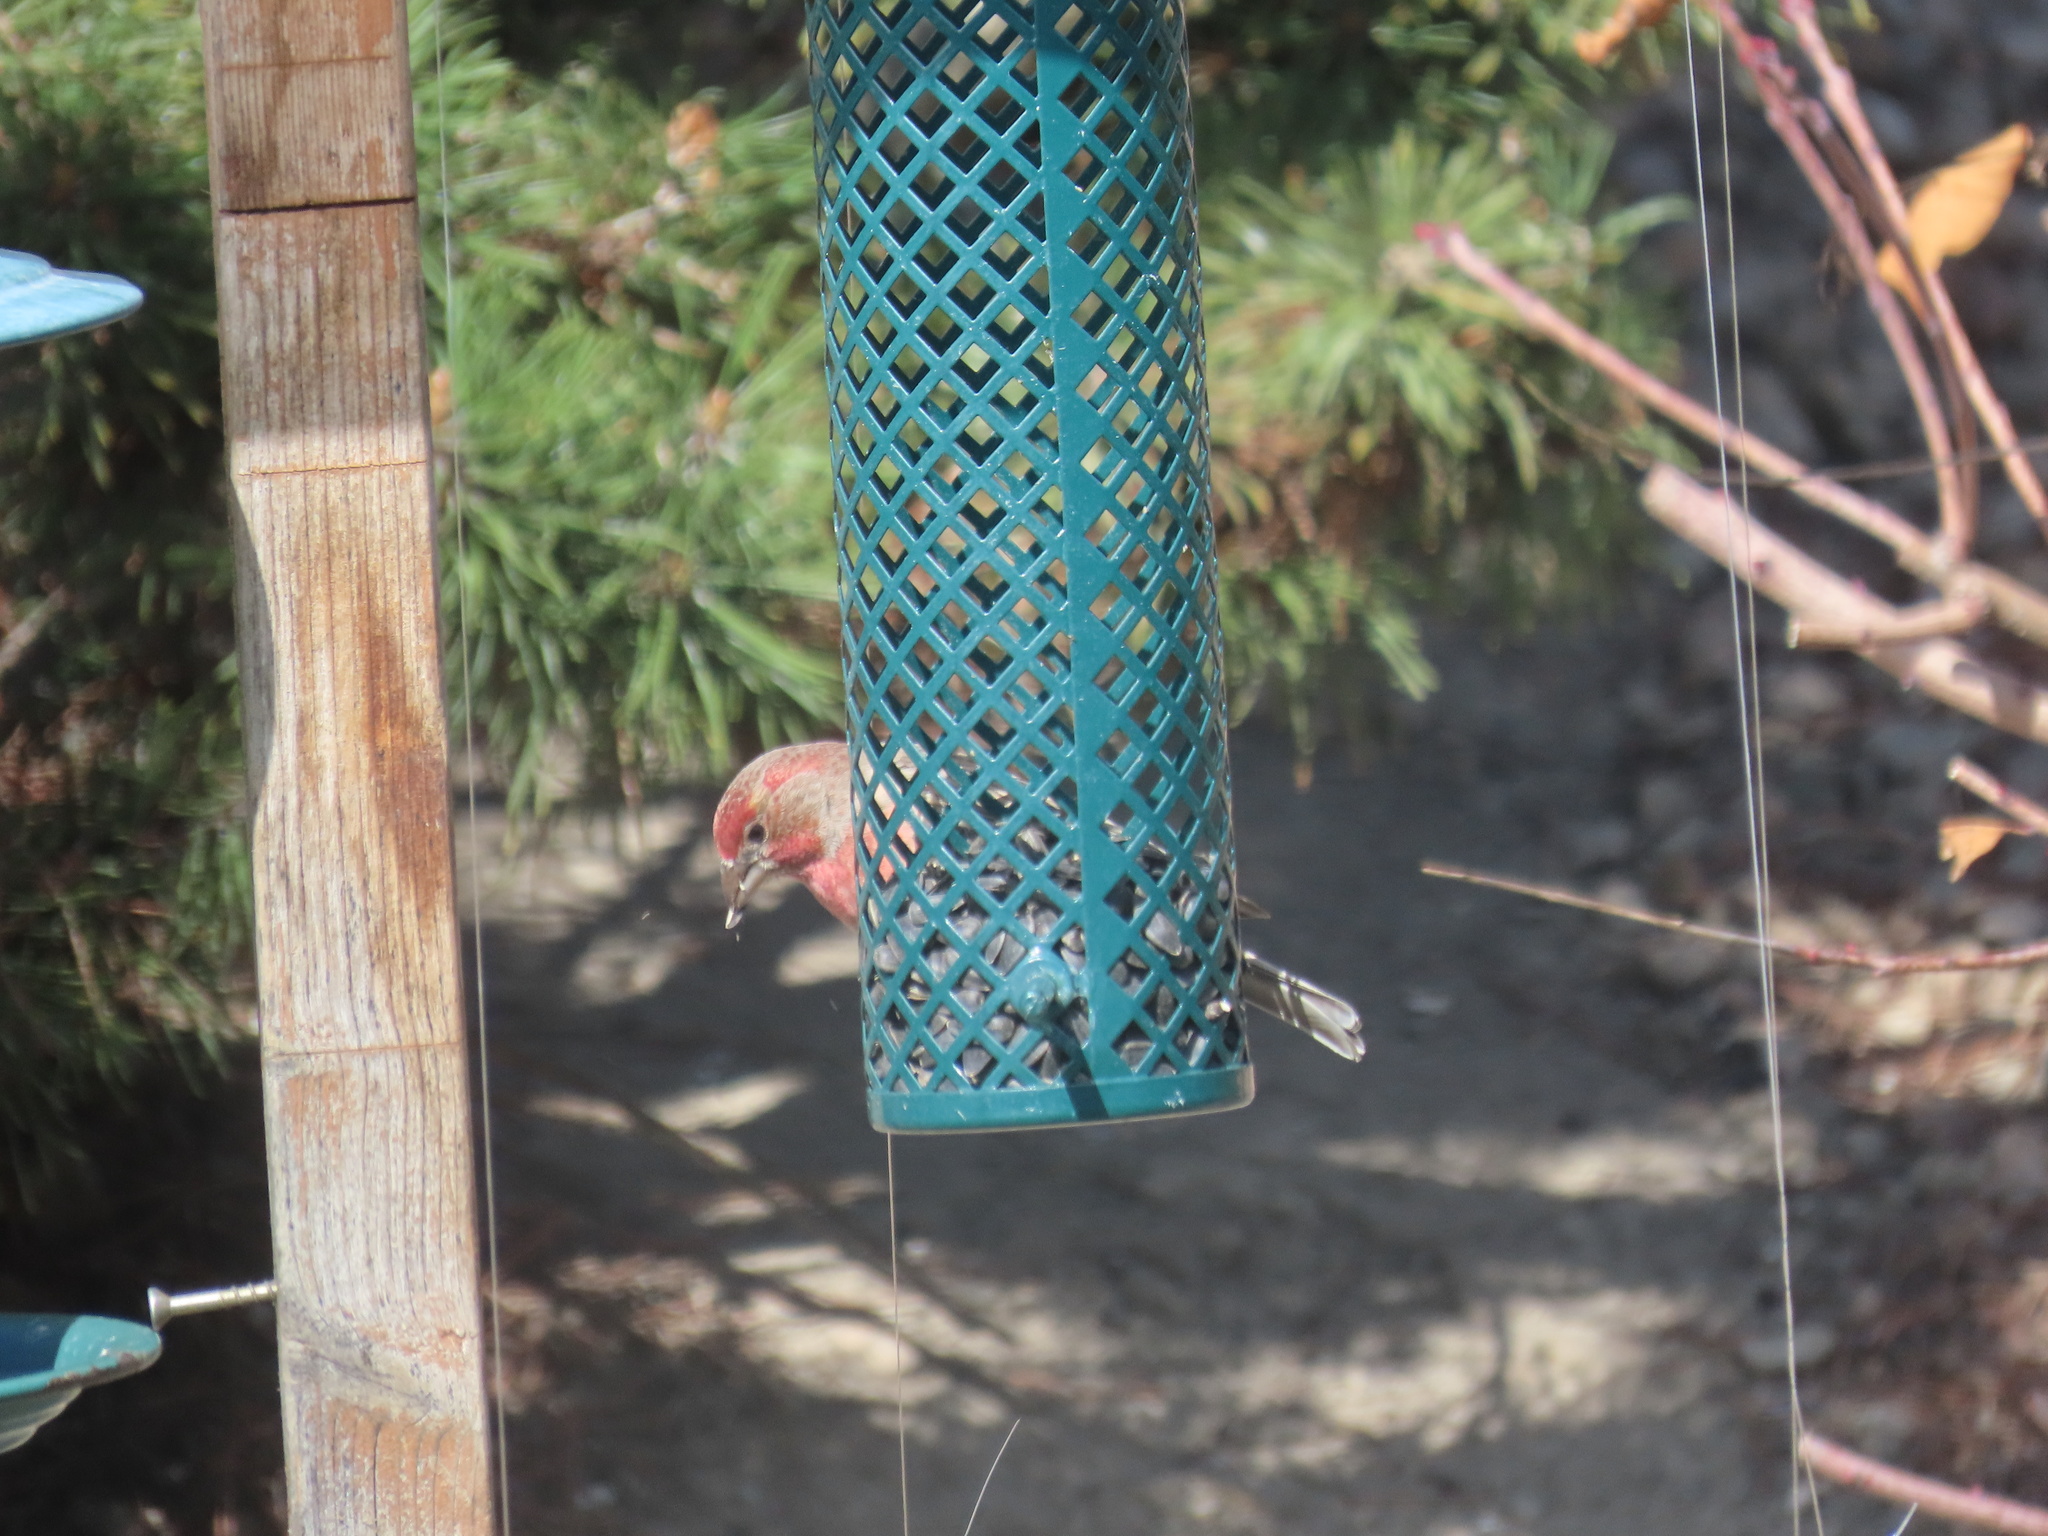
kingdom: Animalia
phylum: Chordata
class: Aves
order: Passeriformes
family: Fringillidae
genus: Haemorhous
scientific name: Haemorhous mexicanus
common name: House finch
